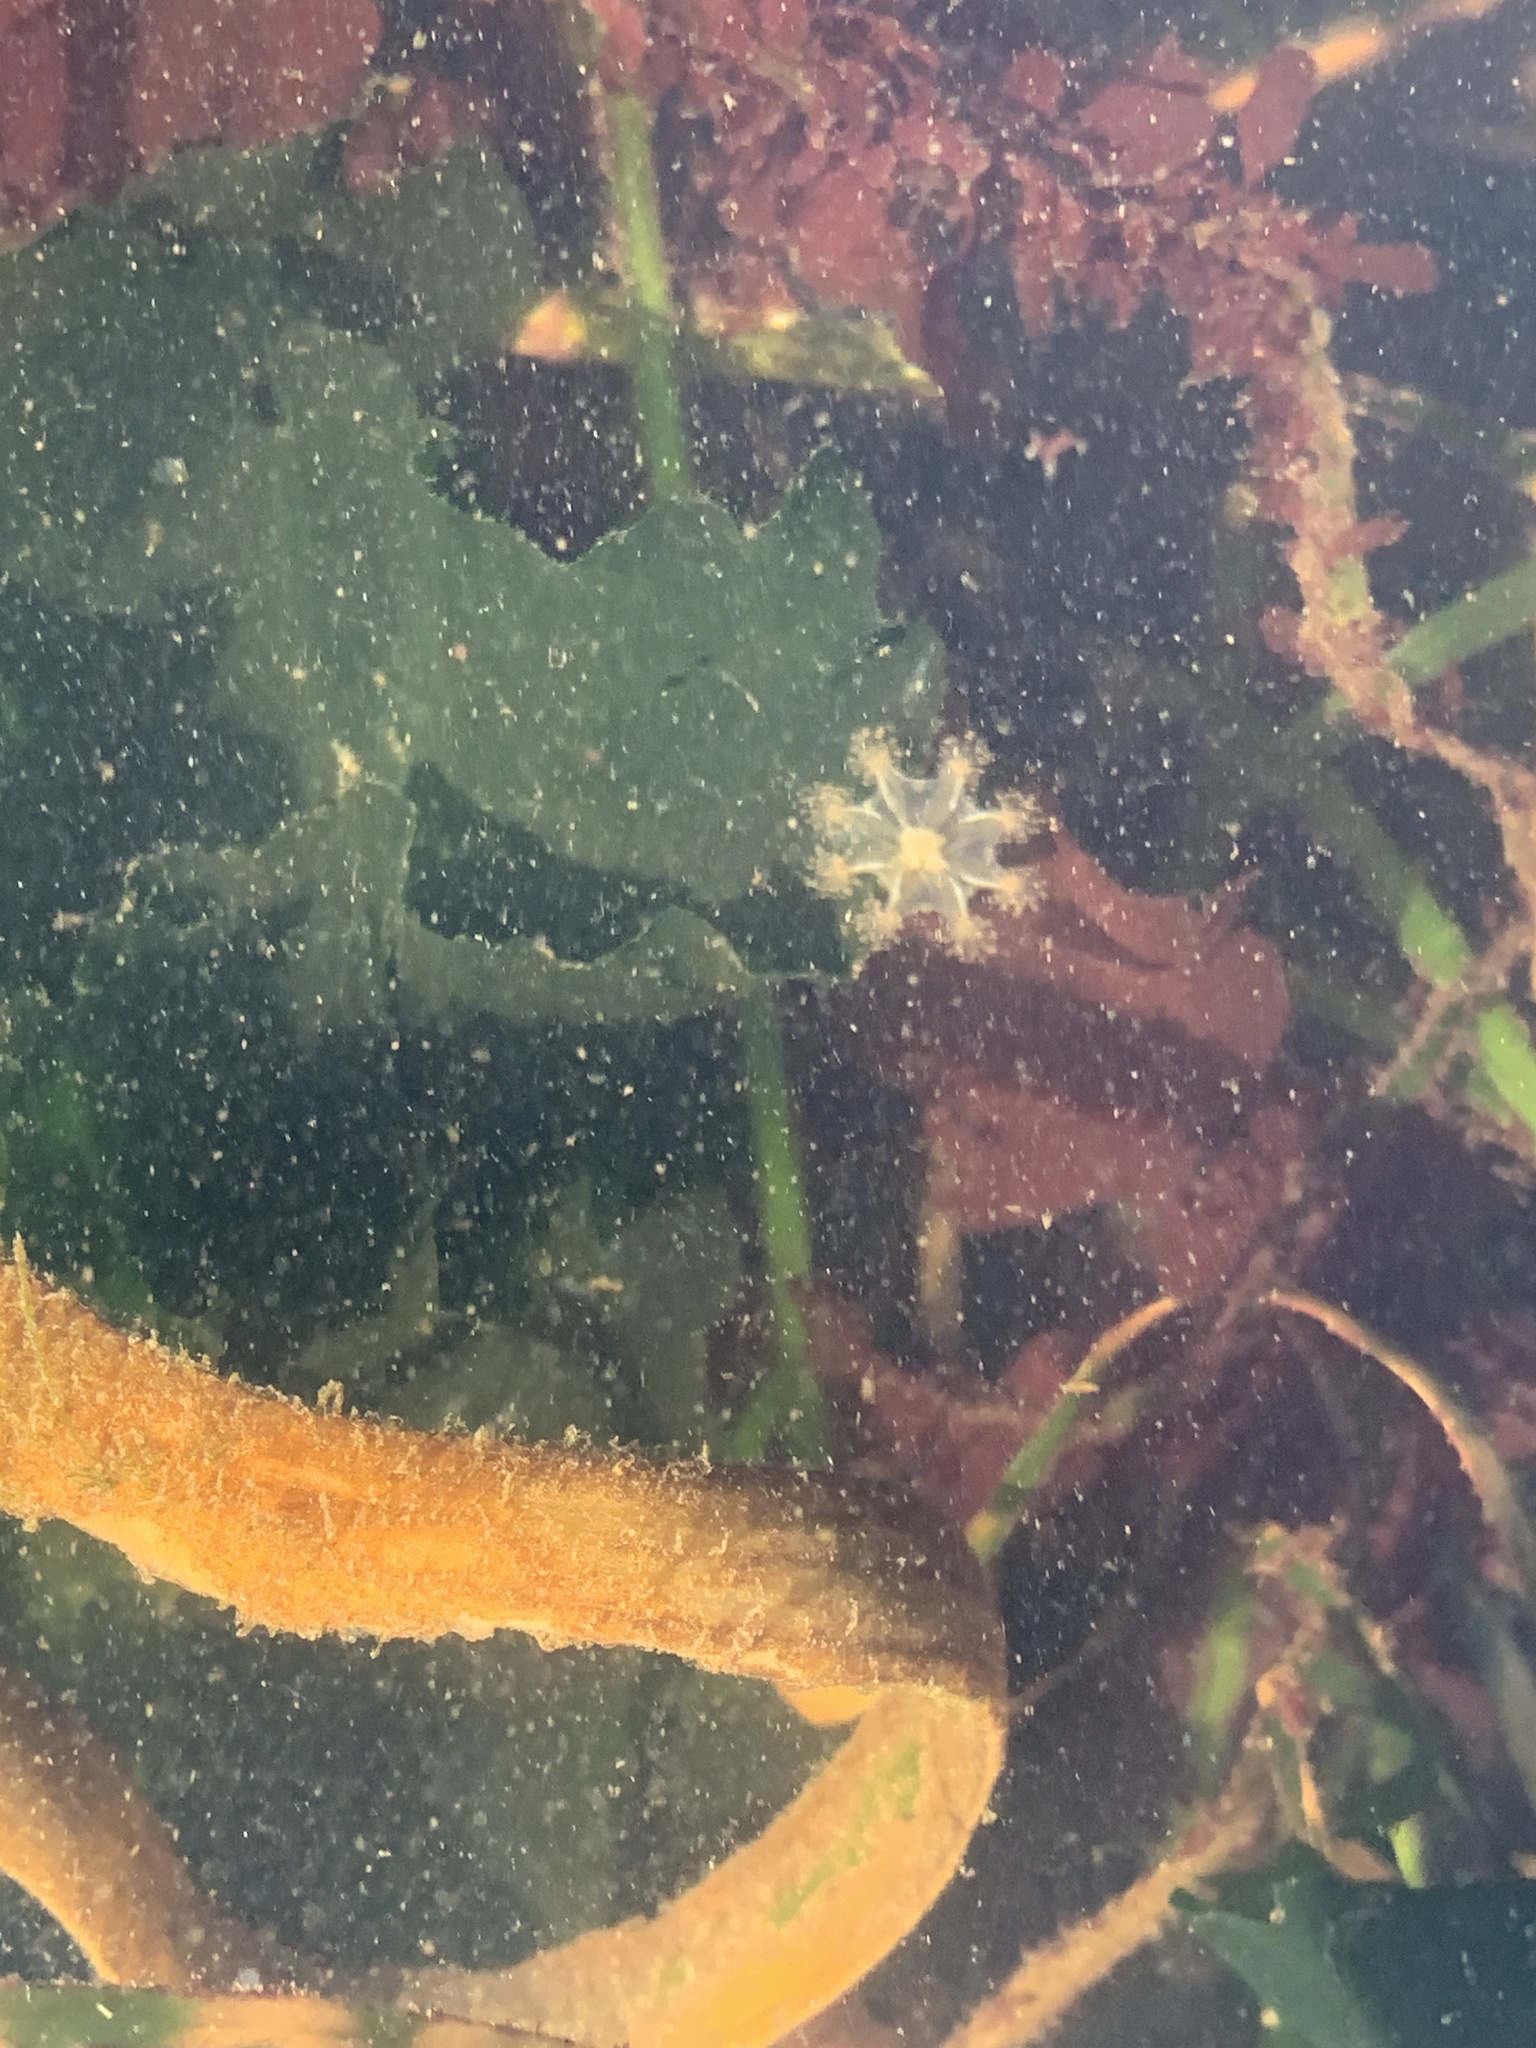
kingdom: Animalia
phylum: Cnidaria
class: Staurozoa
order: Stauromedusae
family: Haliclystidae
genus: Haliclystus
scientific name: Haliclystus sanjuanensis
